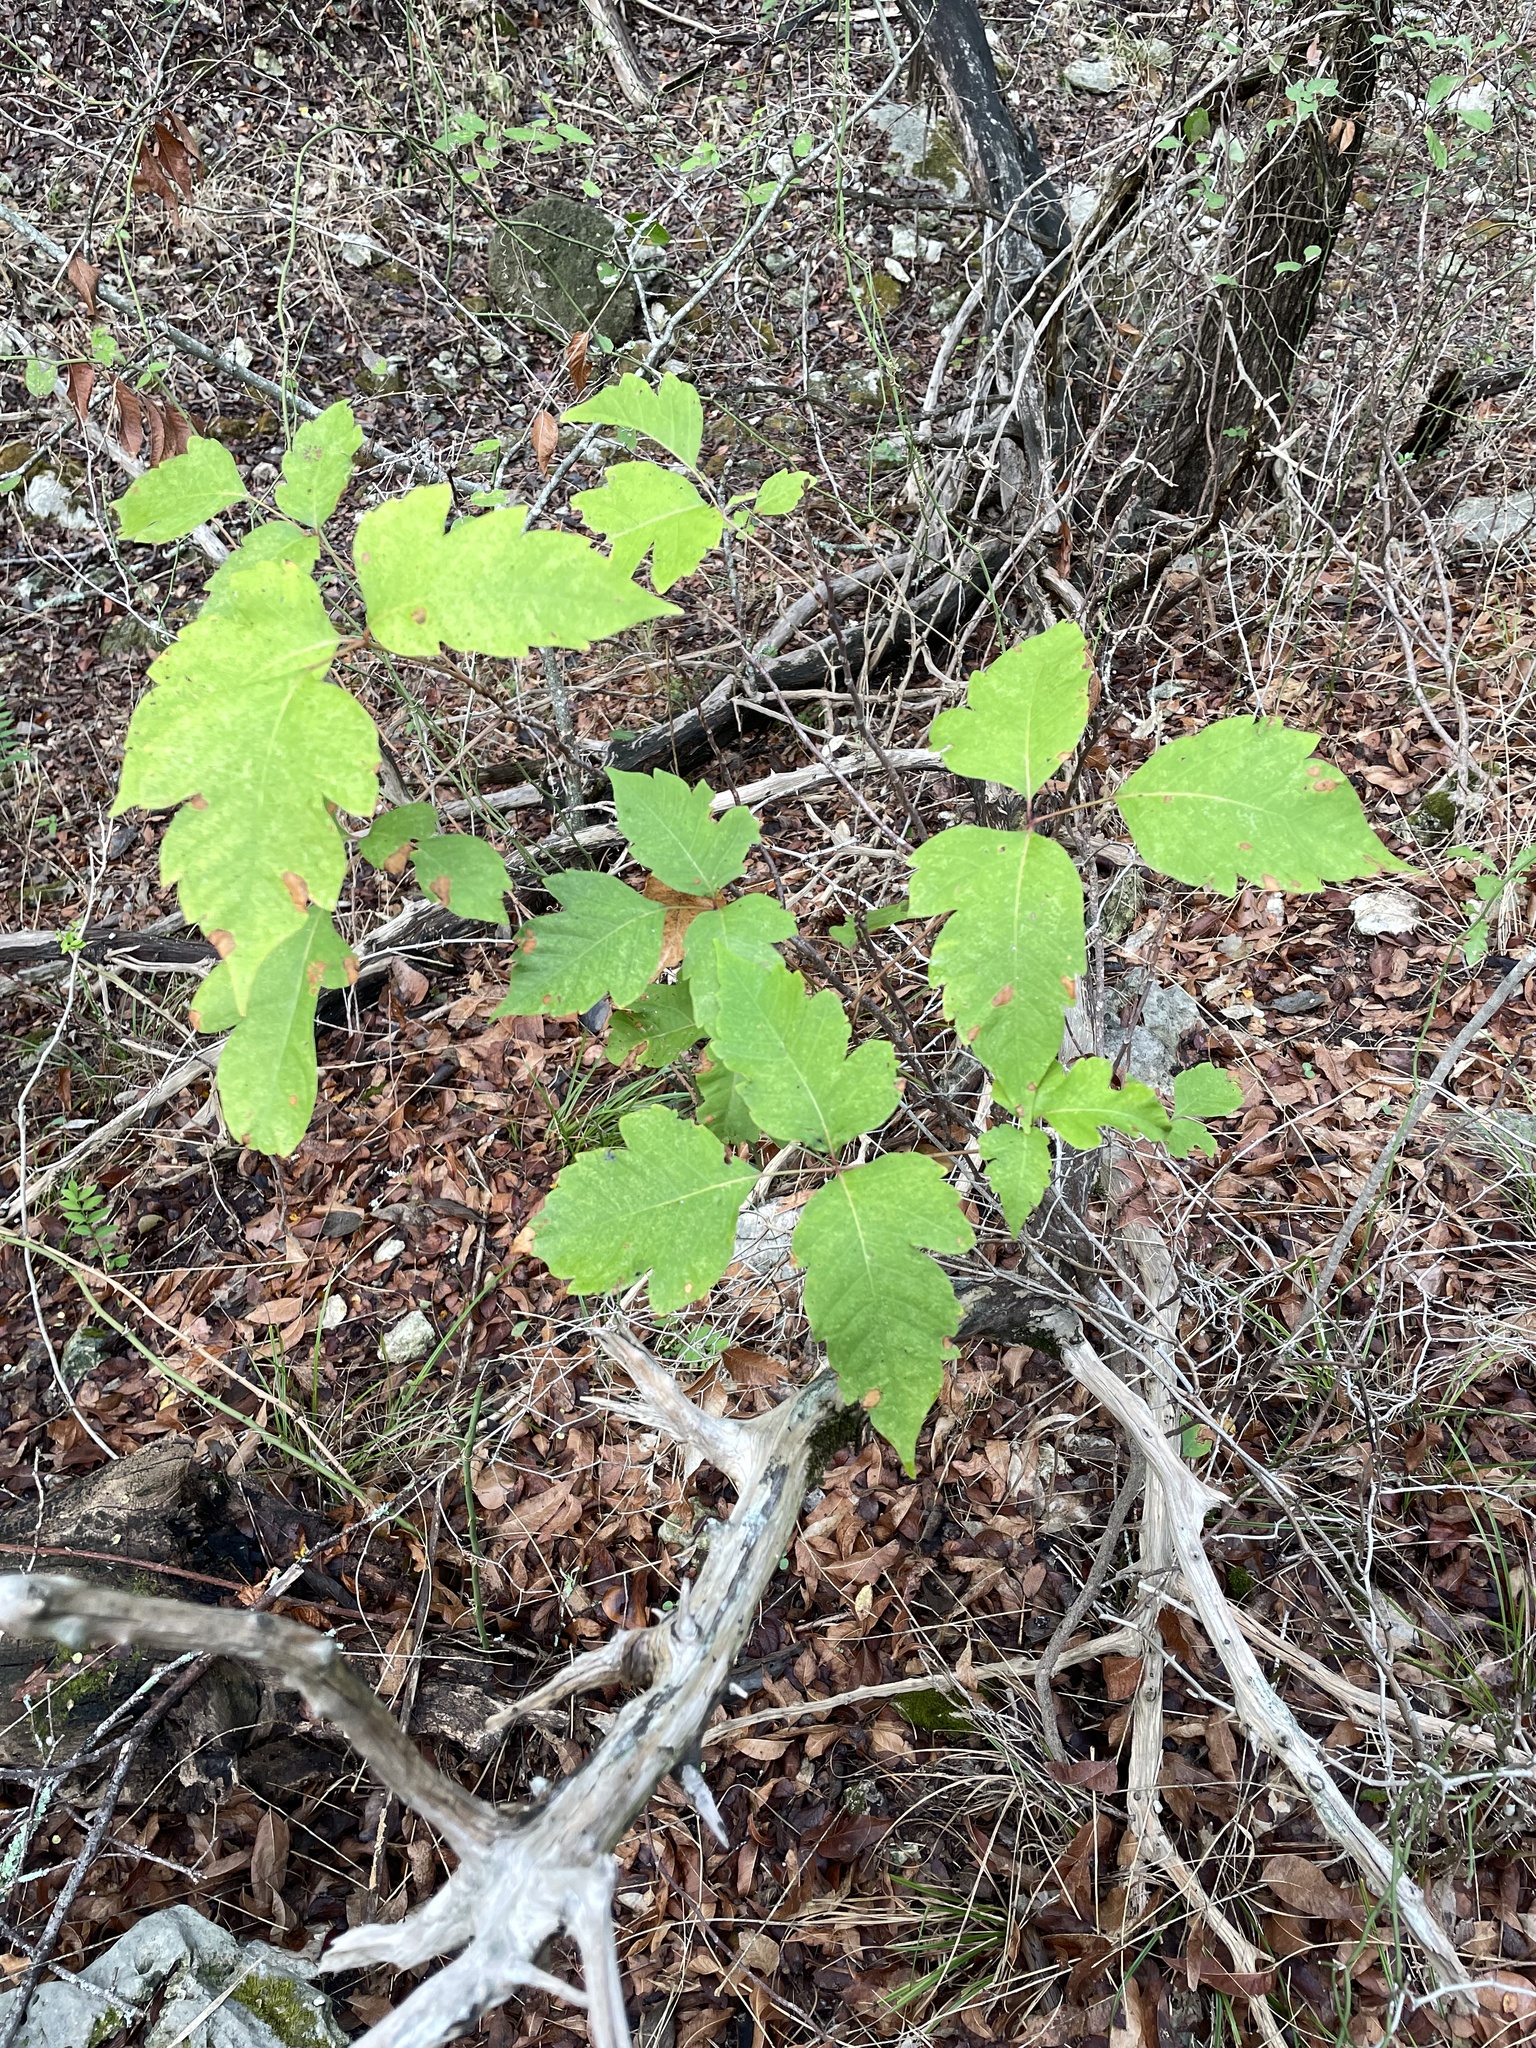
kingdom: Plantae
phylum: Tracheophyta
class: Magnoliopsida
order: Sapindales
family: Anacardiaceae
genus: Toxicodendron
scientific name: Toxicodendron radicans
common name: Poison ivy
